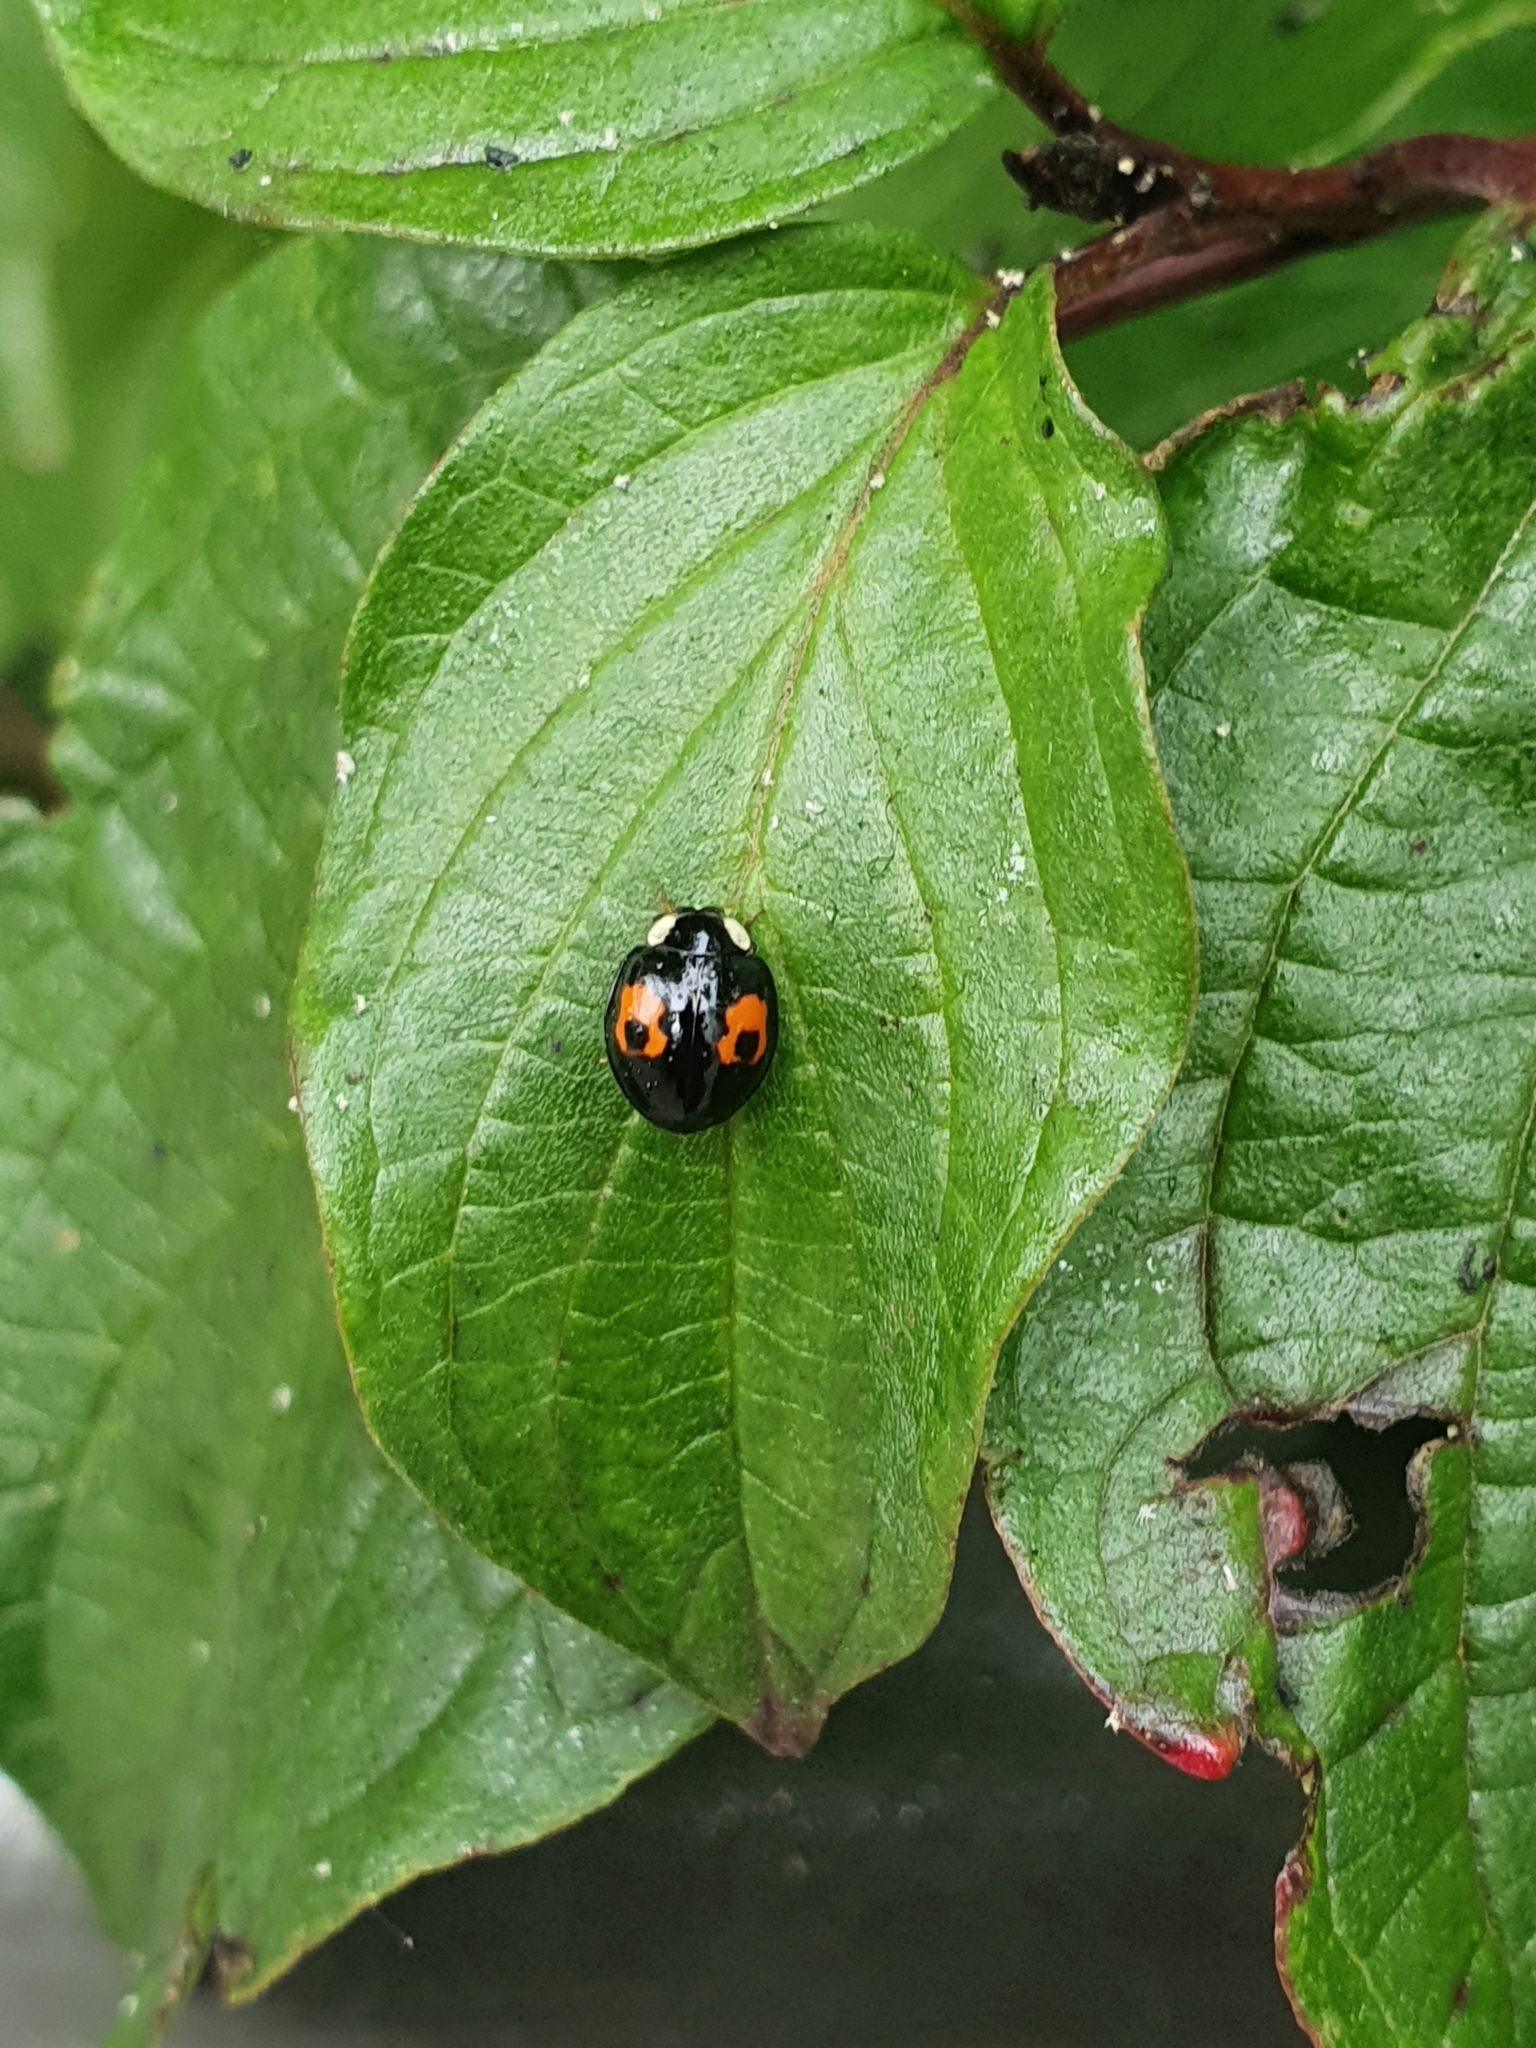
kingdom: Animalia
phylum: Arthropoda
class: Insecta
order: Coleoptera
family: Coccinellidae
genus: Harmonia
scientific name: Harmonia axyridis
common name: Harlequin ladybird
